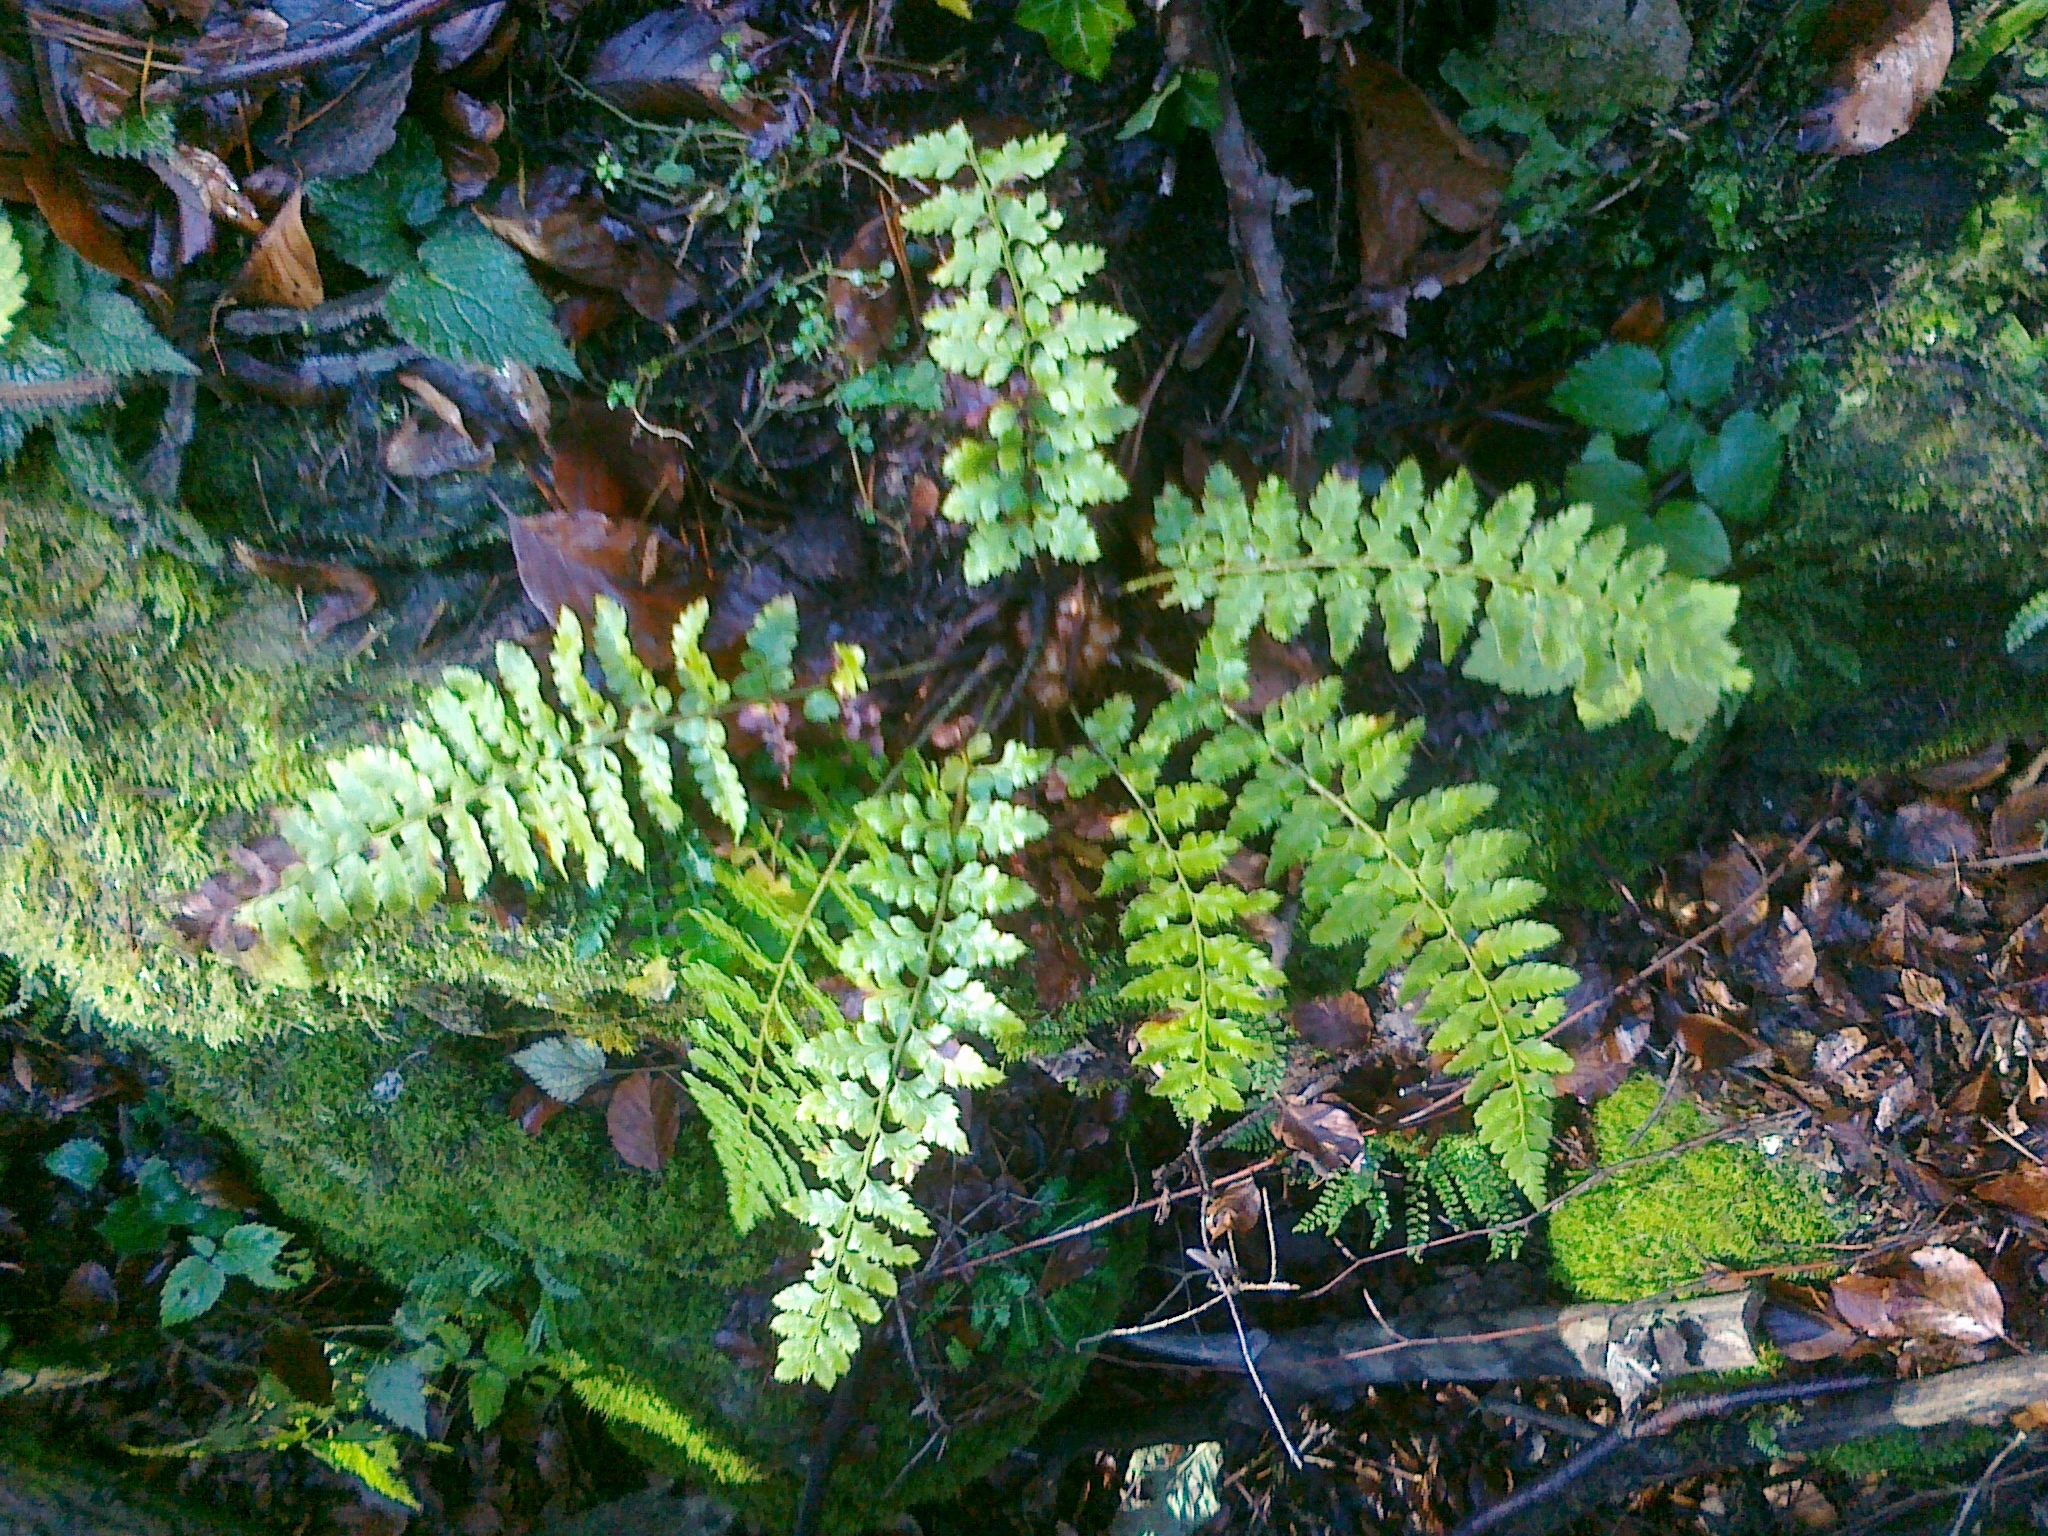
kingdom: Plantae
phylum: Tracheophyta
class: Polypodiopsida
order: Polypodiales
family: Dryopteridaceae
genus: Polystichum
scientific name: Polystichum braunii
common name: Braun's holly fern
